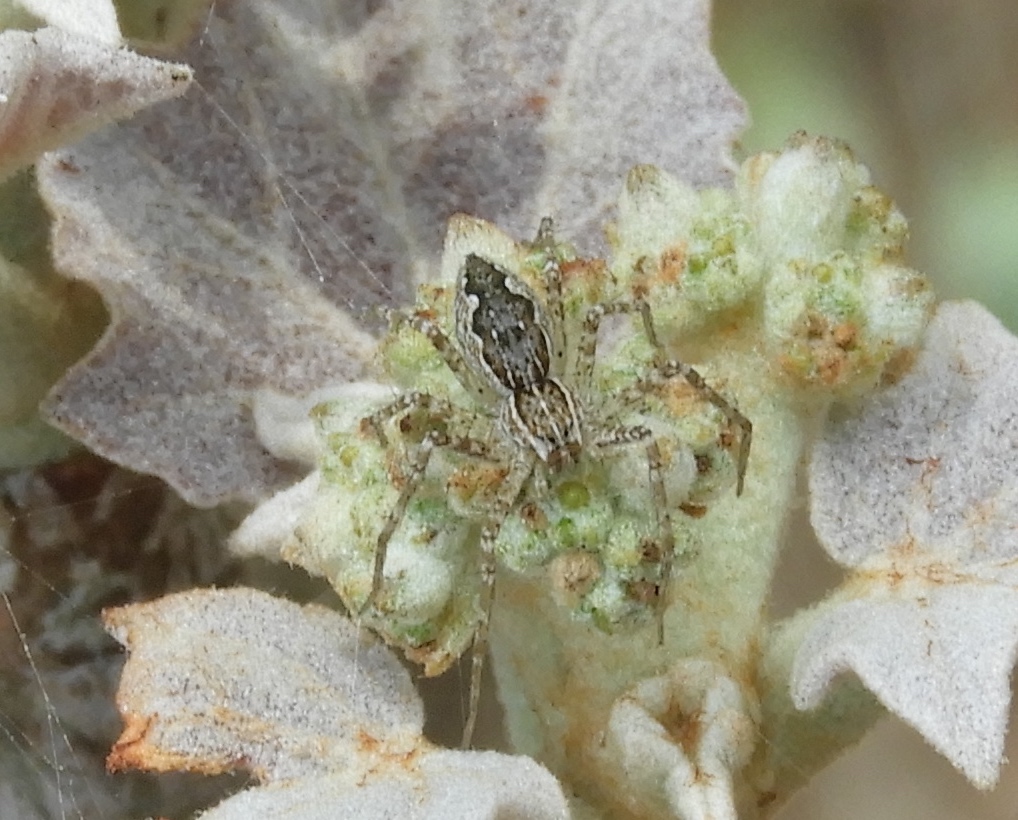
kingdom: Animalia
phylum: Arthropoda
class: Arachnida
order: Araneae
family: Pisauridae
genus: Tinus
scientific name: Tinus
